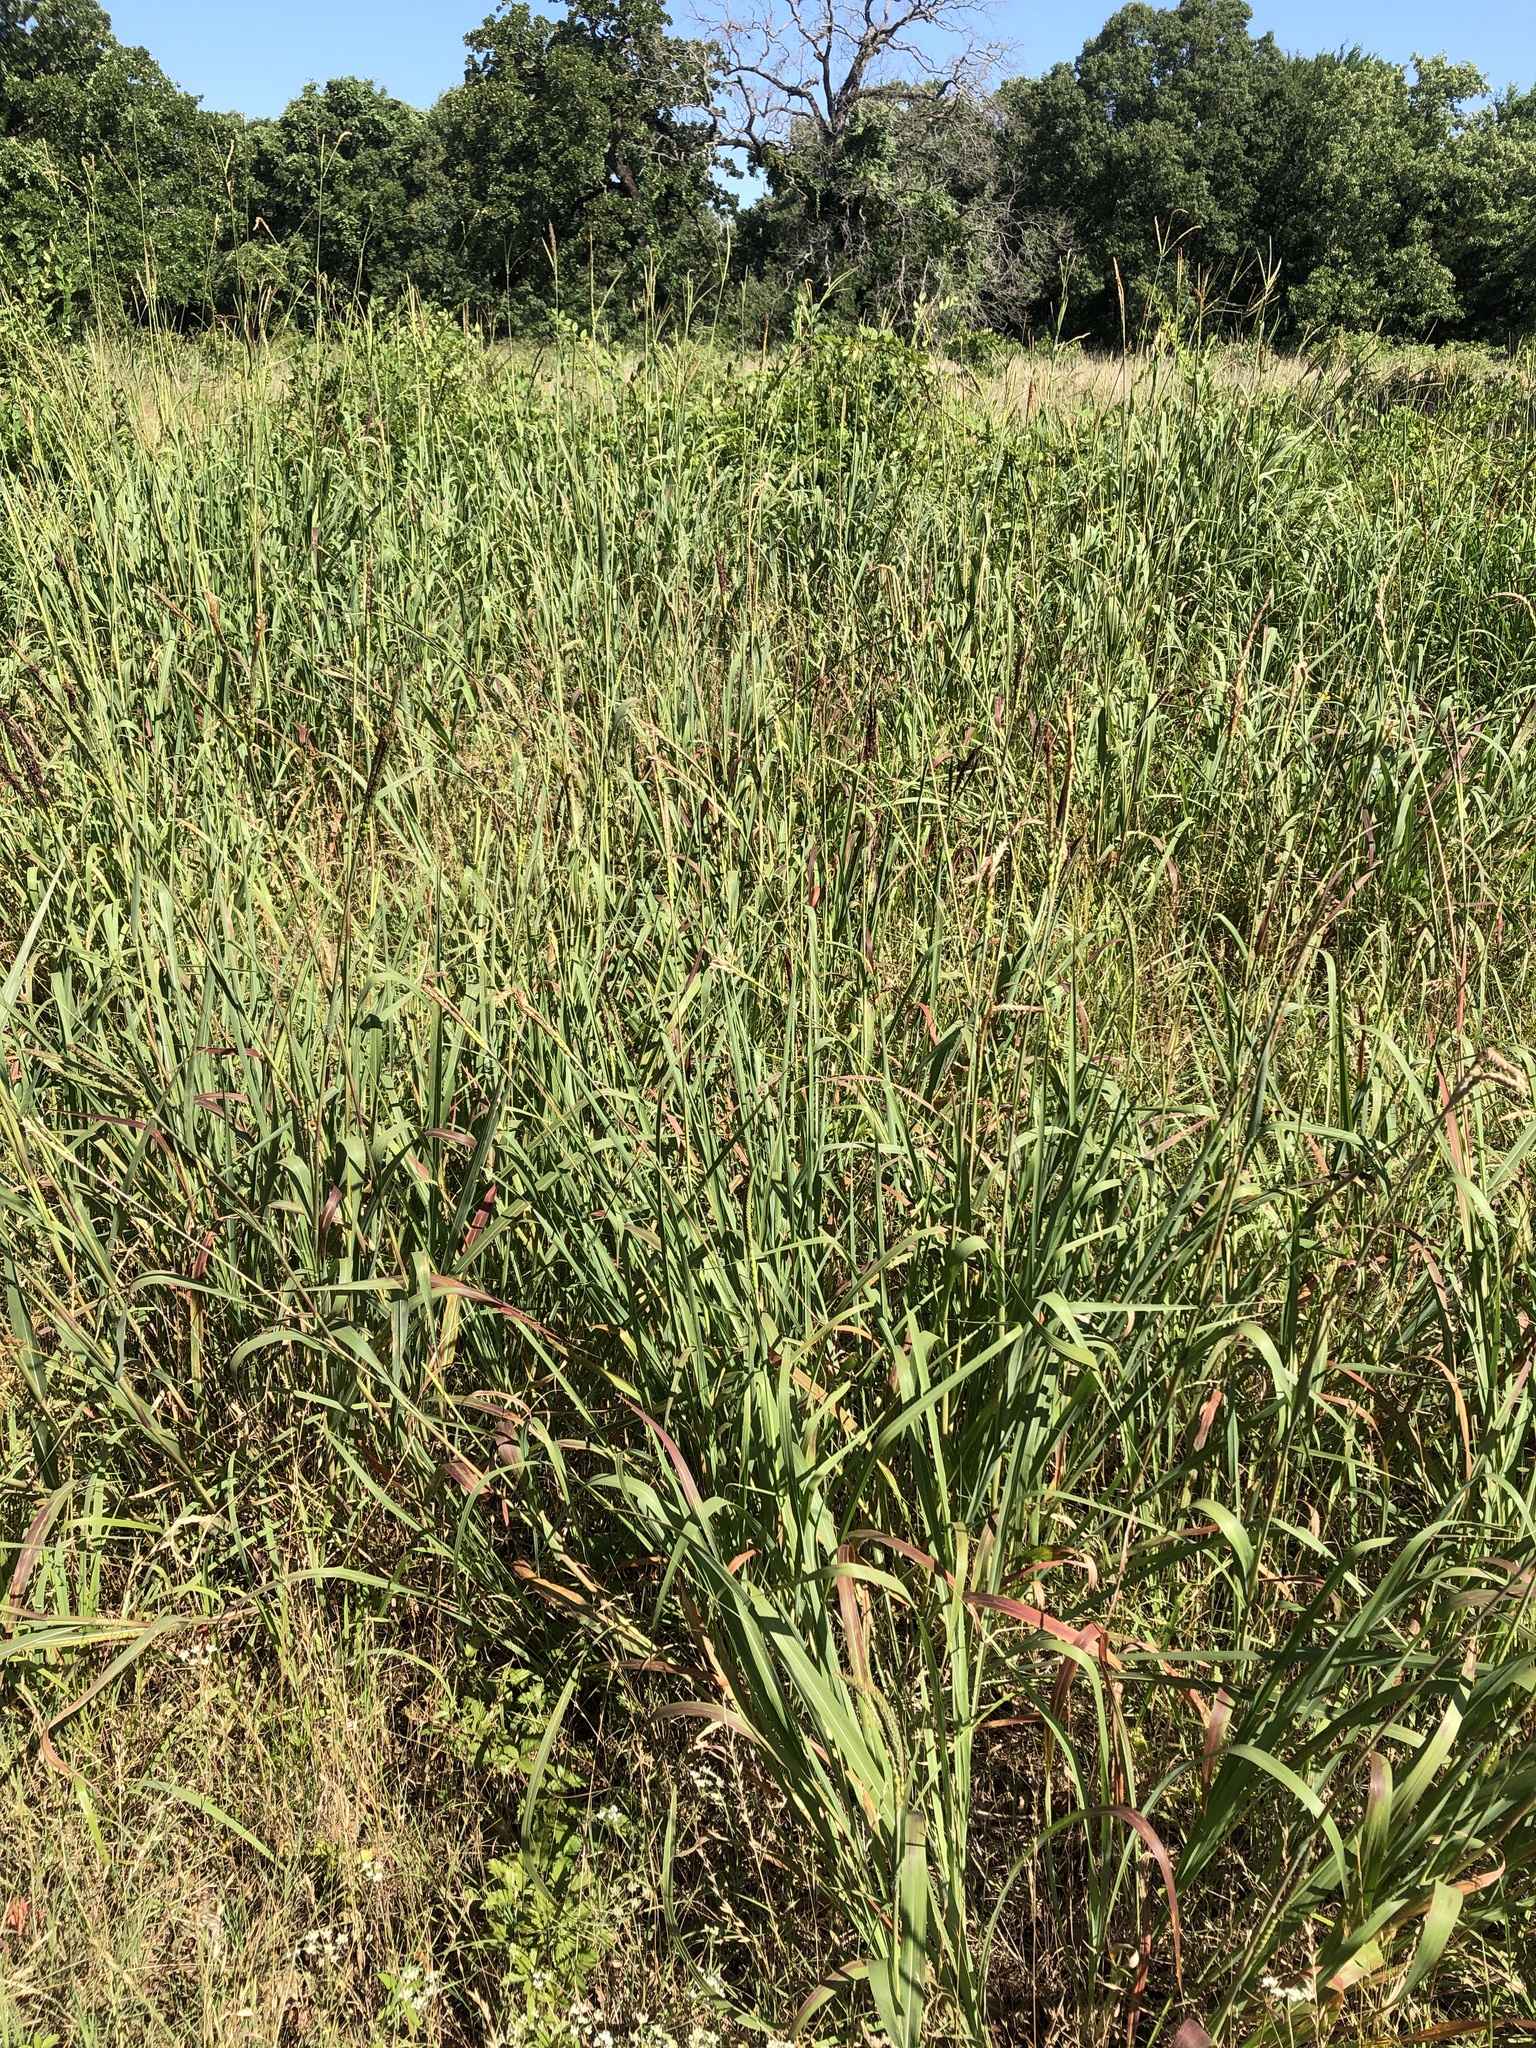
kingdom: Plantae
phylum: Tracheophyta
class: Liliopsida
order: Poales
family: Poaceae
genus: Tripsacum
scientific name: Tripsacum dactyloides
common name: Buffalo-grass
